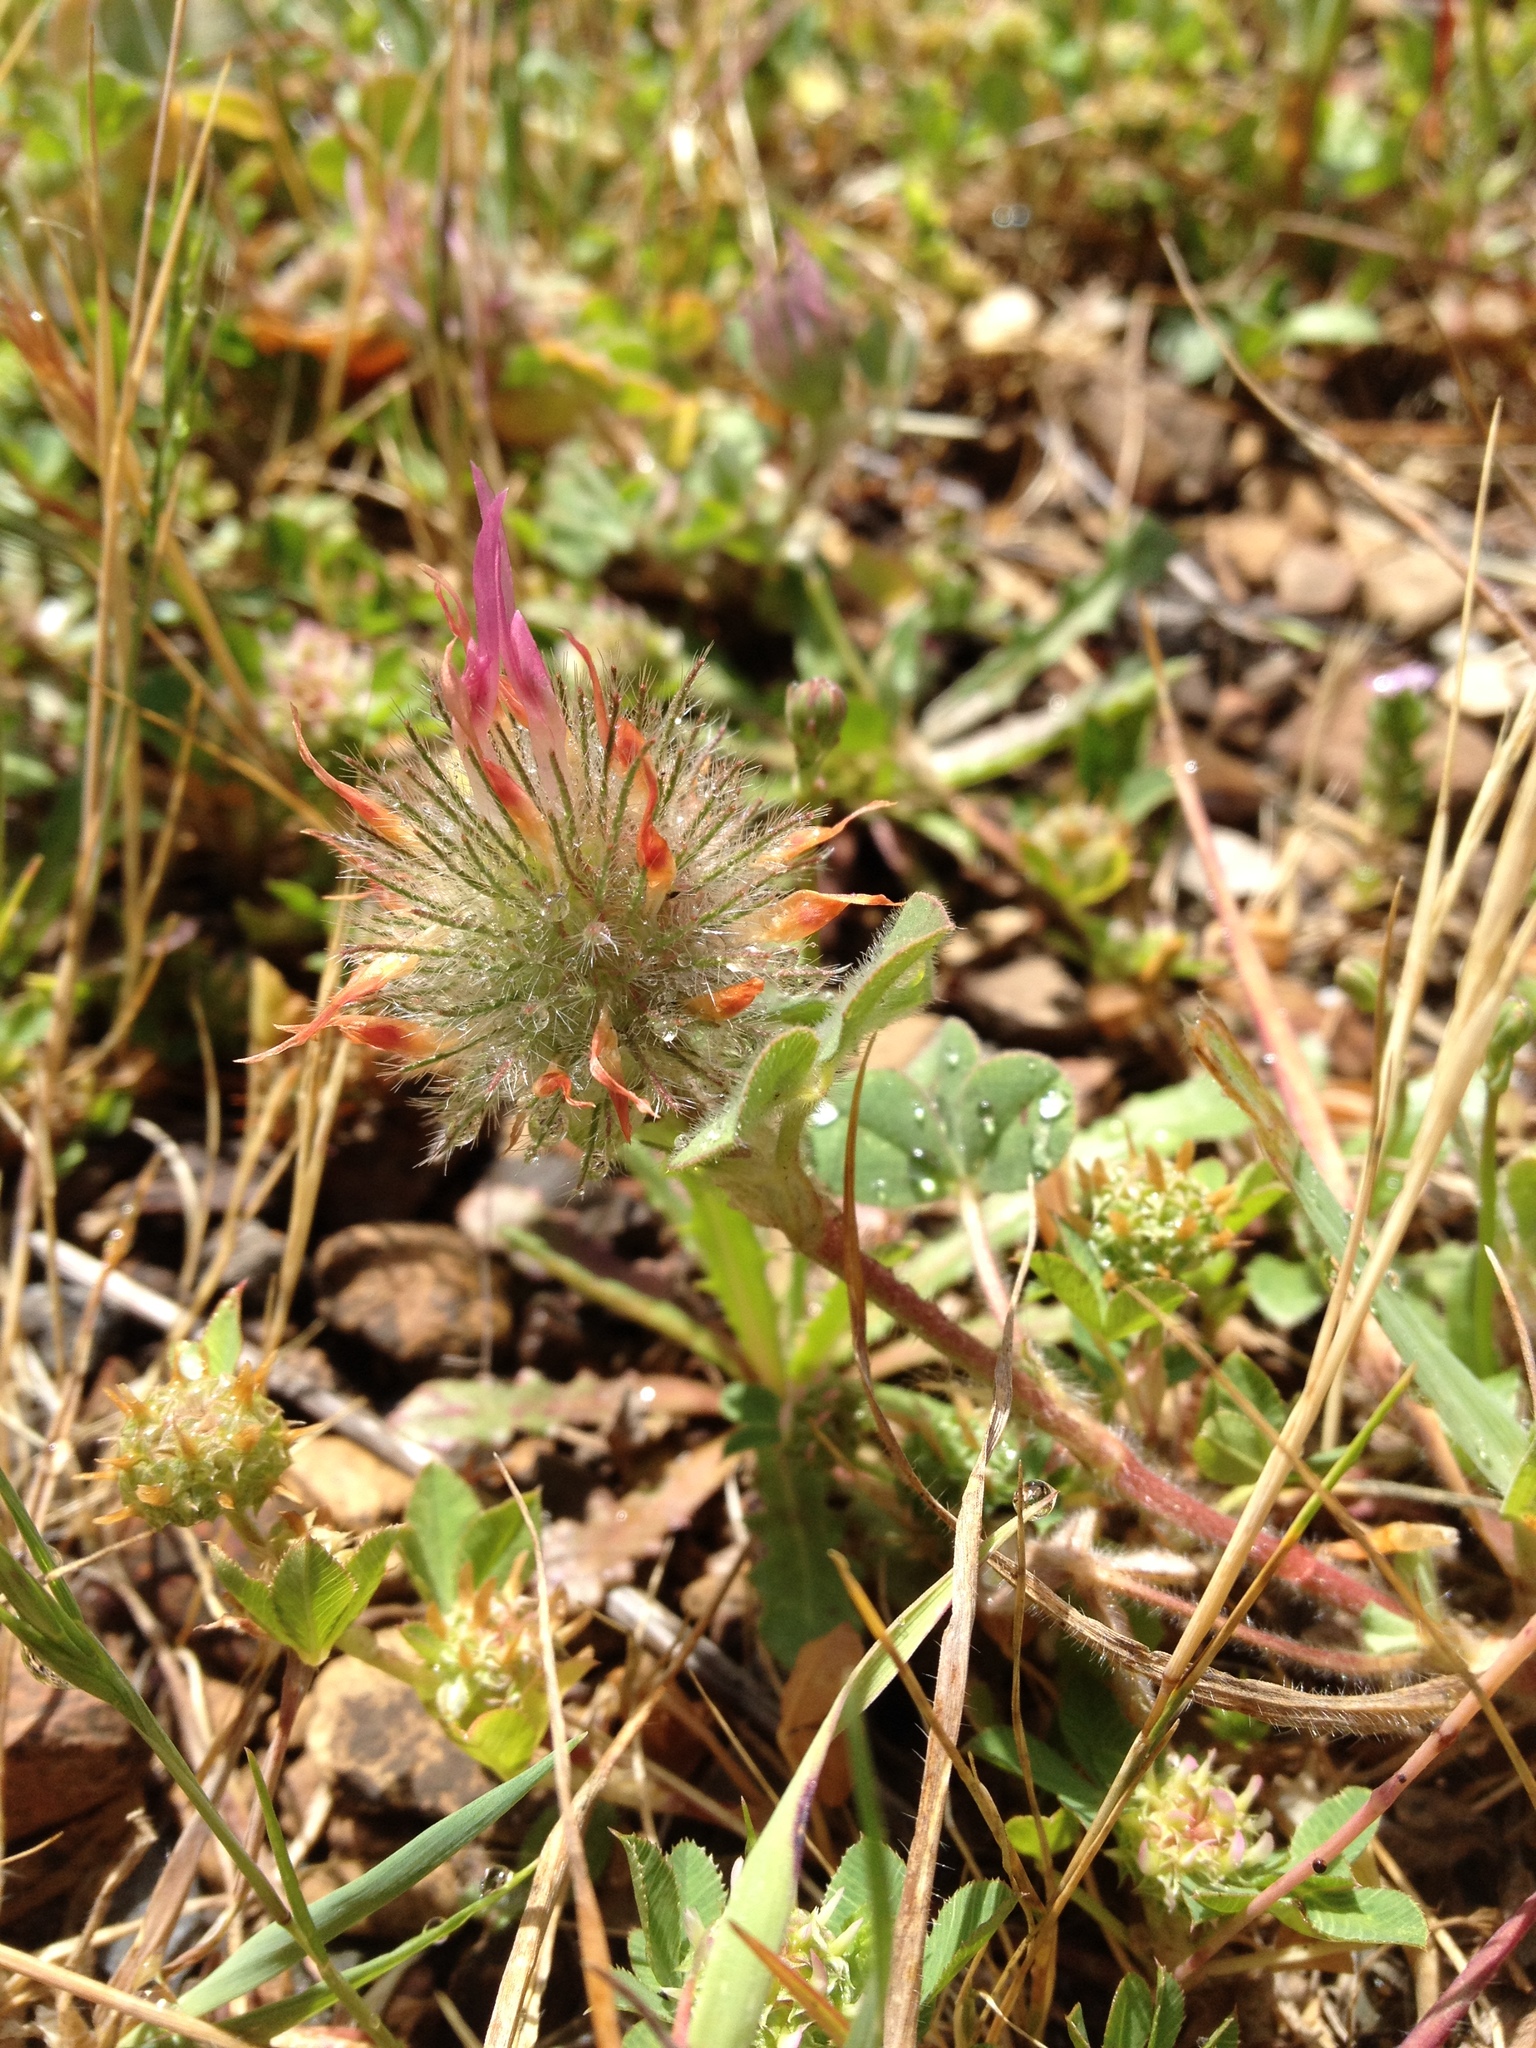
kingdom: Plantae
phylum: Tracheophyta
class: Magnoliopsida
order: Fabales
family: Fabaceae
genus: Trifolium
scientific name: Trifolium hirtum
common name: Rose clover
